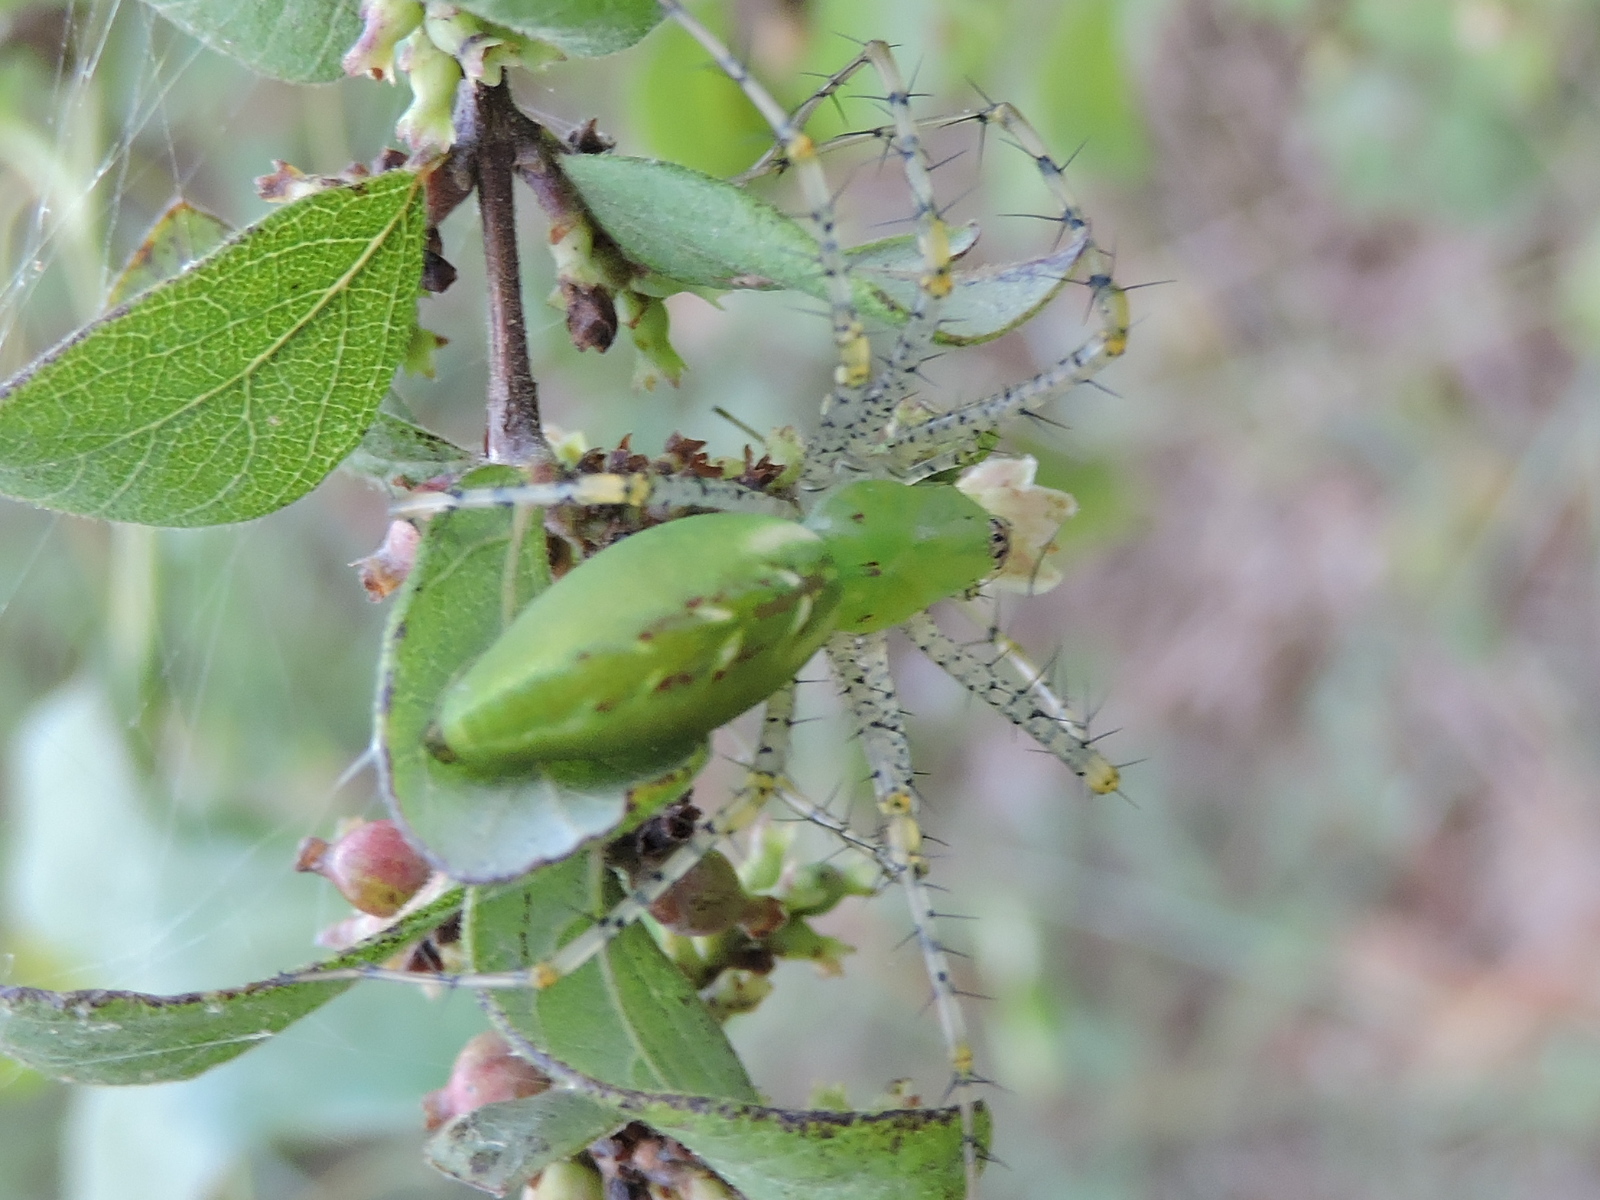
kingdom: Animalia
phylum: Arthropoda
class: Arachnida
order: Araneae
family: Oxyopidae
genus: Peucetia
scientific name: Peucetia viridans
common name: Lynx spiders
